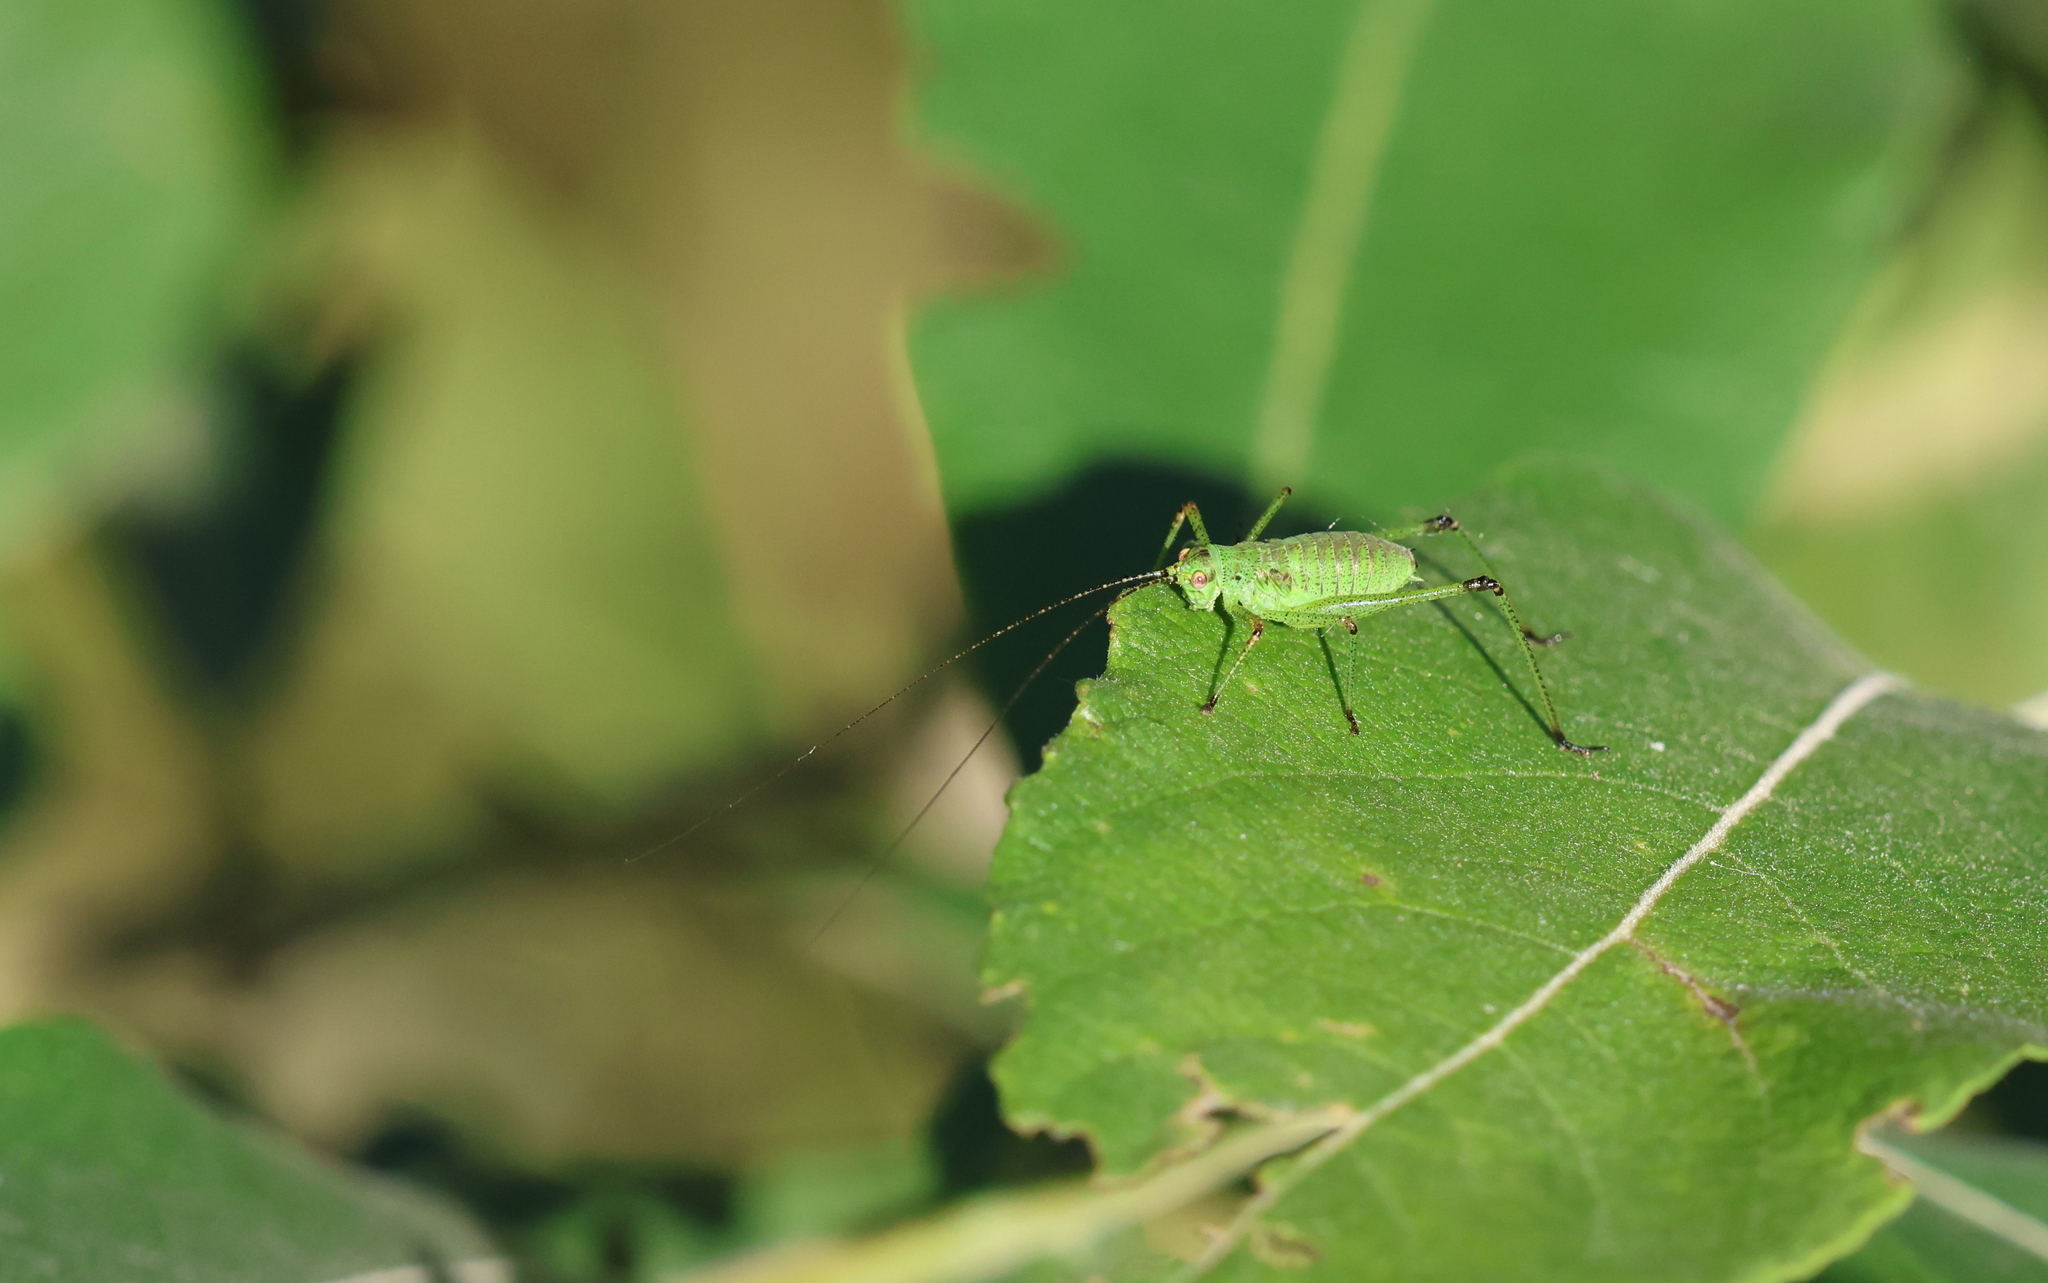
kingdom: Animalia
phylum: Arthropoda
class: Insecta
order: Orthoptera
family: Tettigoniidae
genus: Phaneroptera
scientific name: Phaneroptera nana
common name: Southern sickle bush-cricket
